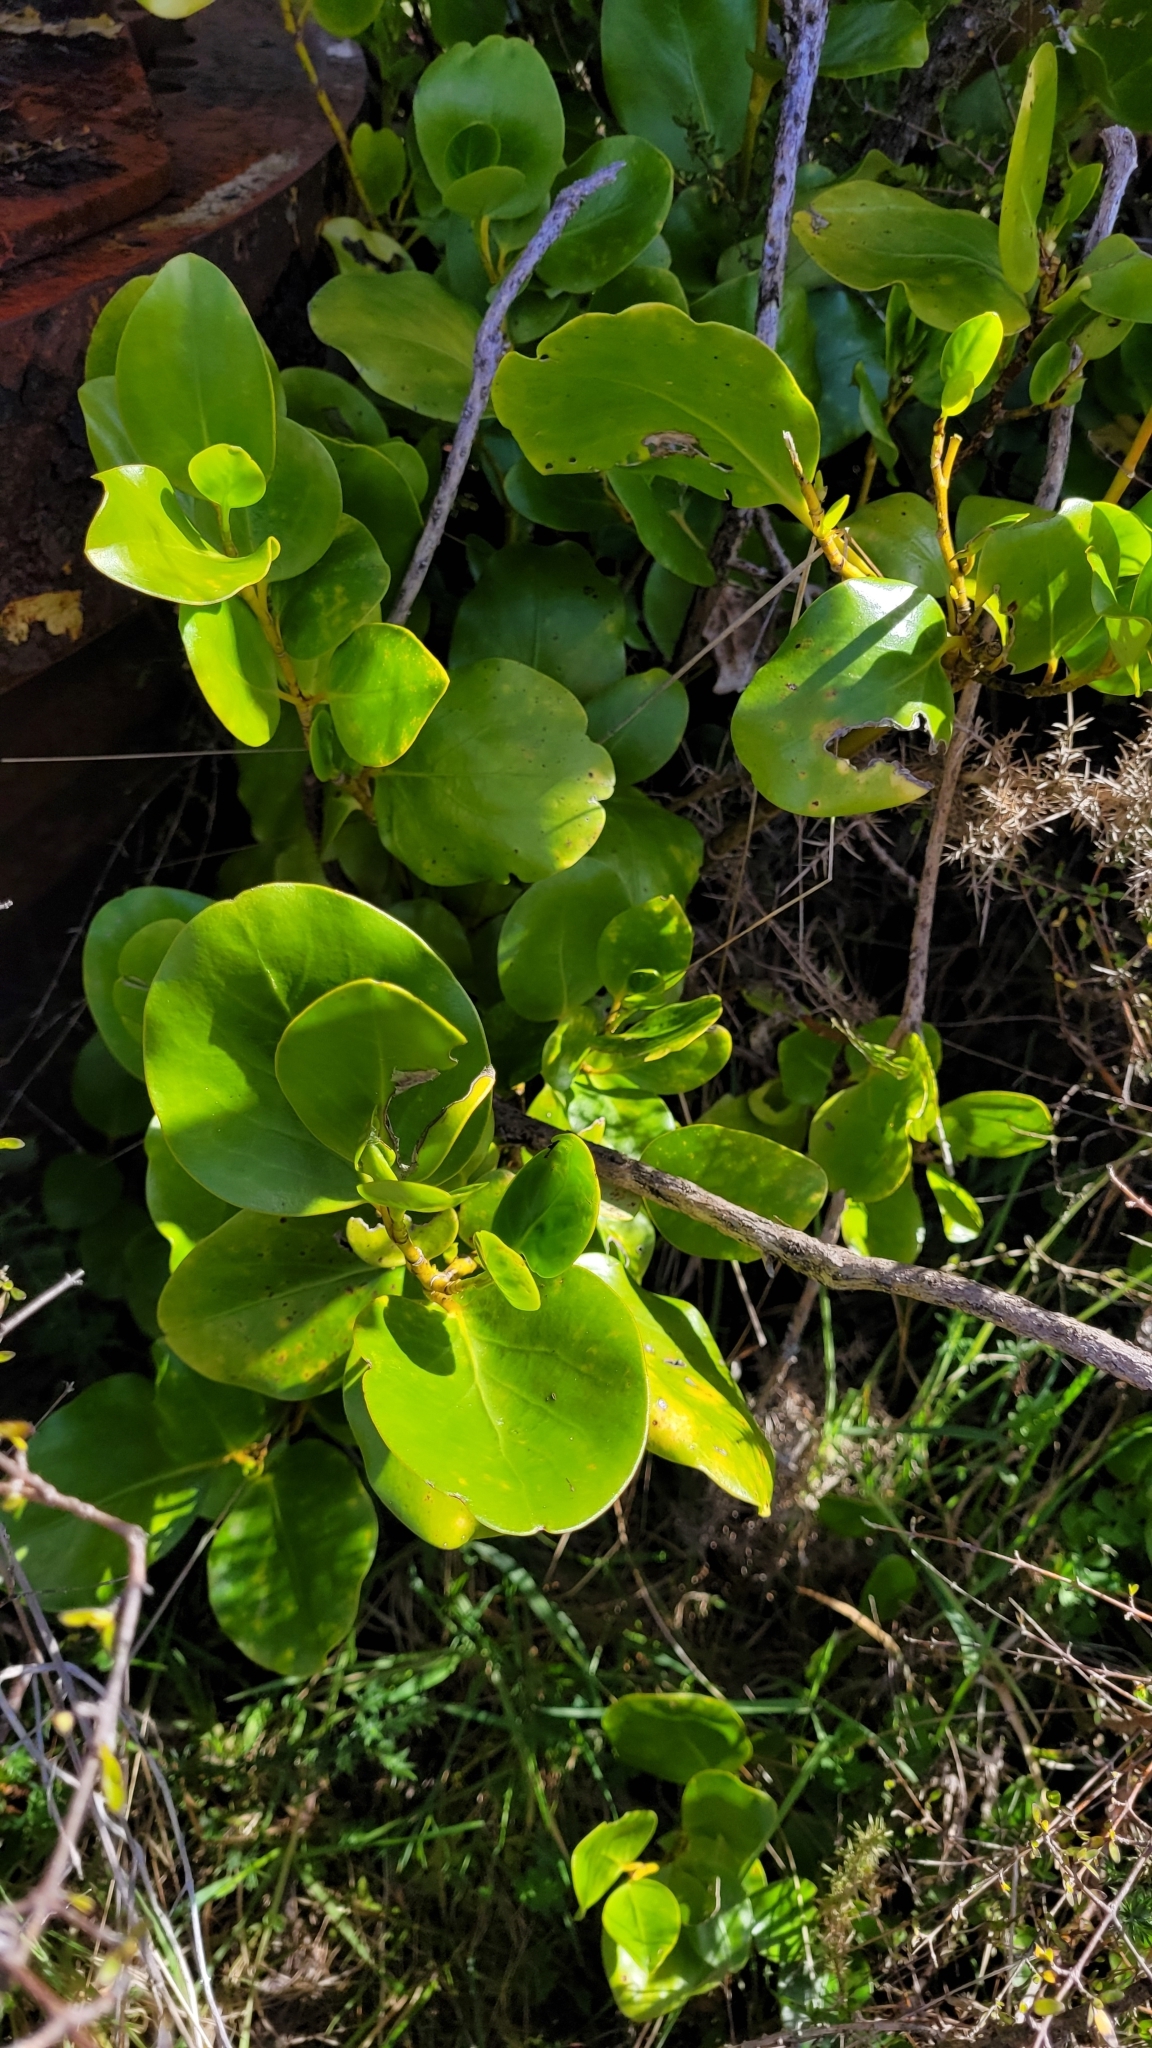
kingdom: Plantae
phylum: Tracheophyta
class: Magnoliopsida
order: Apiales
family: Griseliniaceae
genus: Griselinia
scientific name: Griselinia littoralis
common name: New zealand broadleaf
